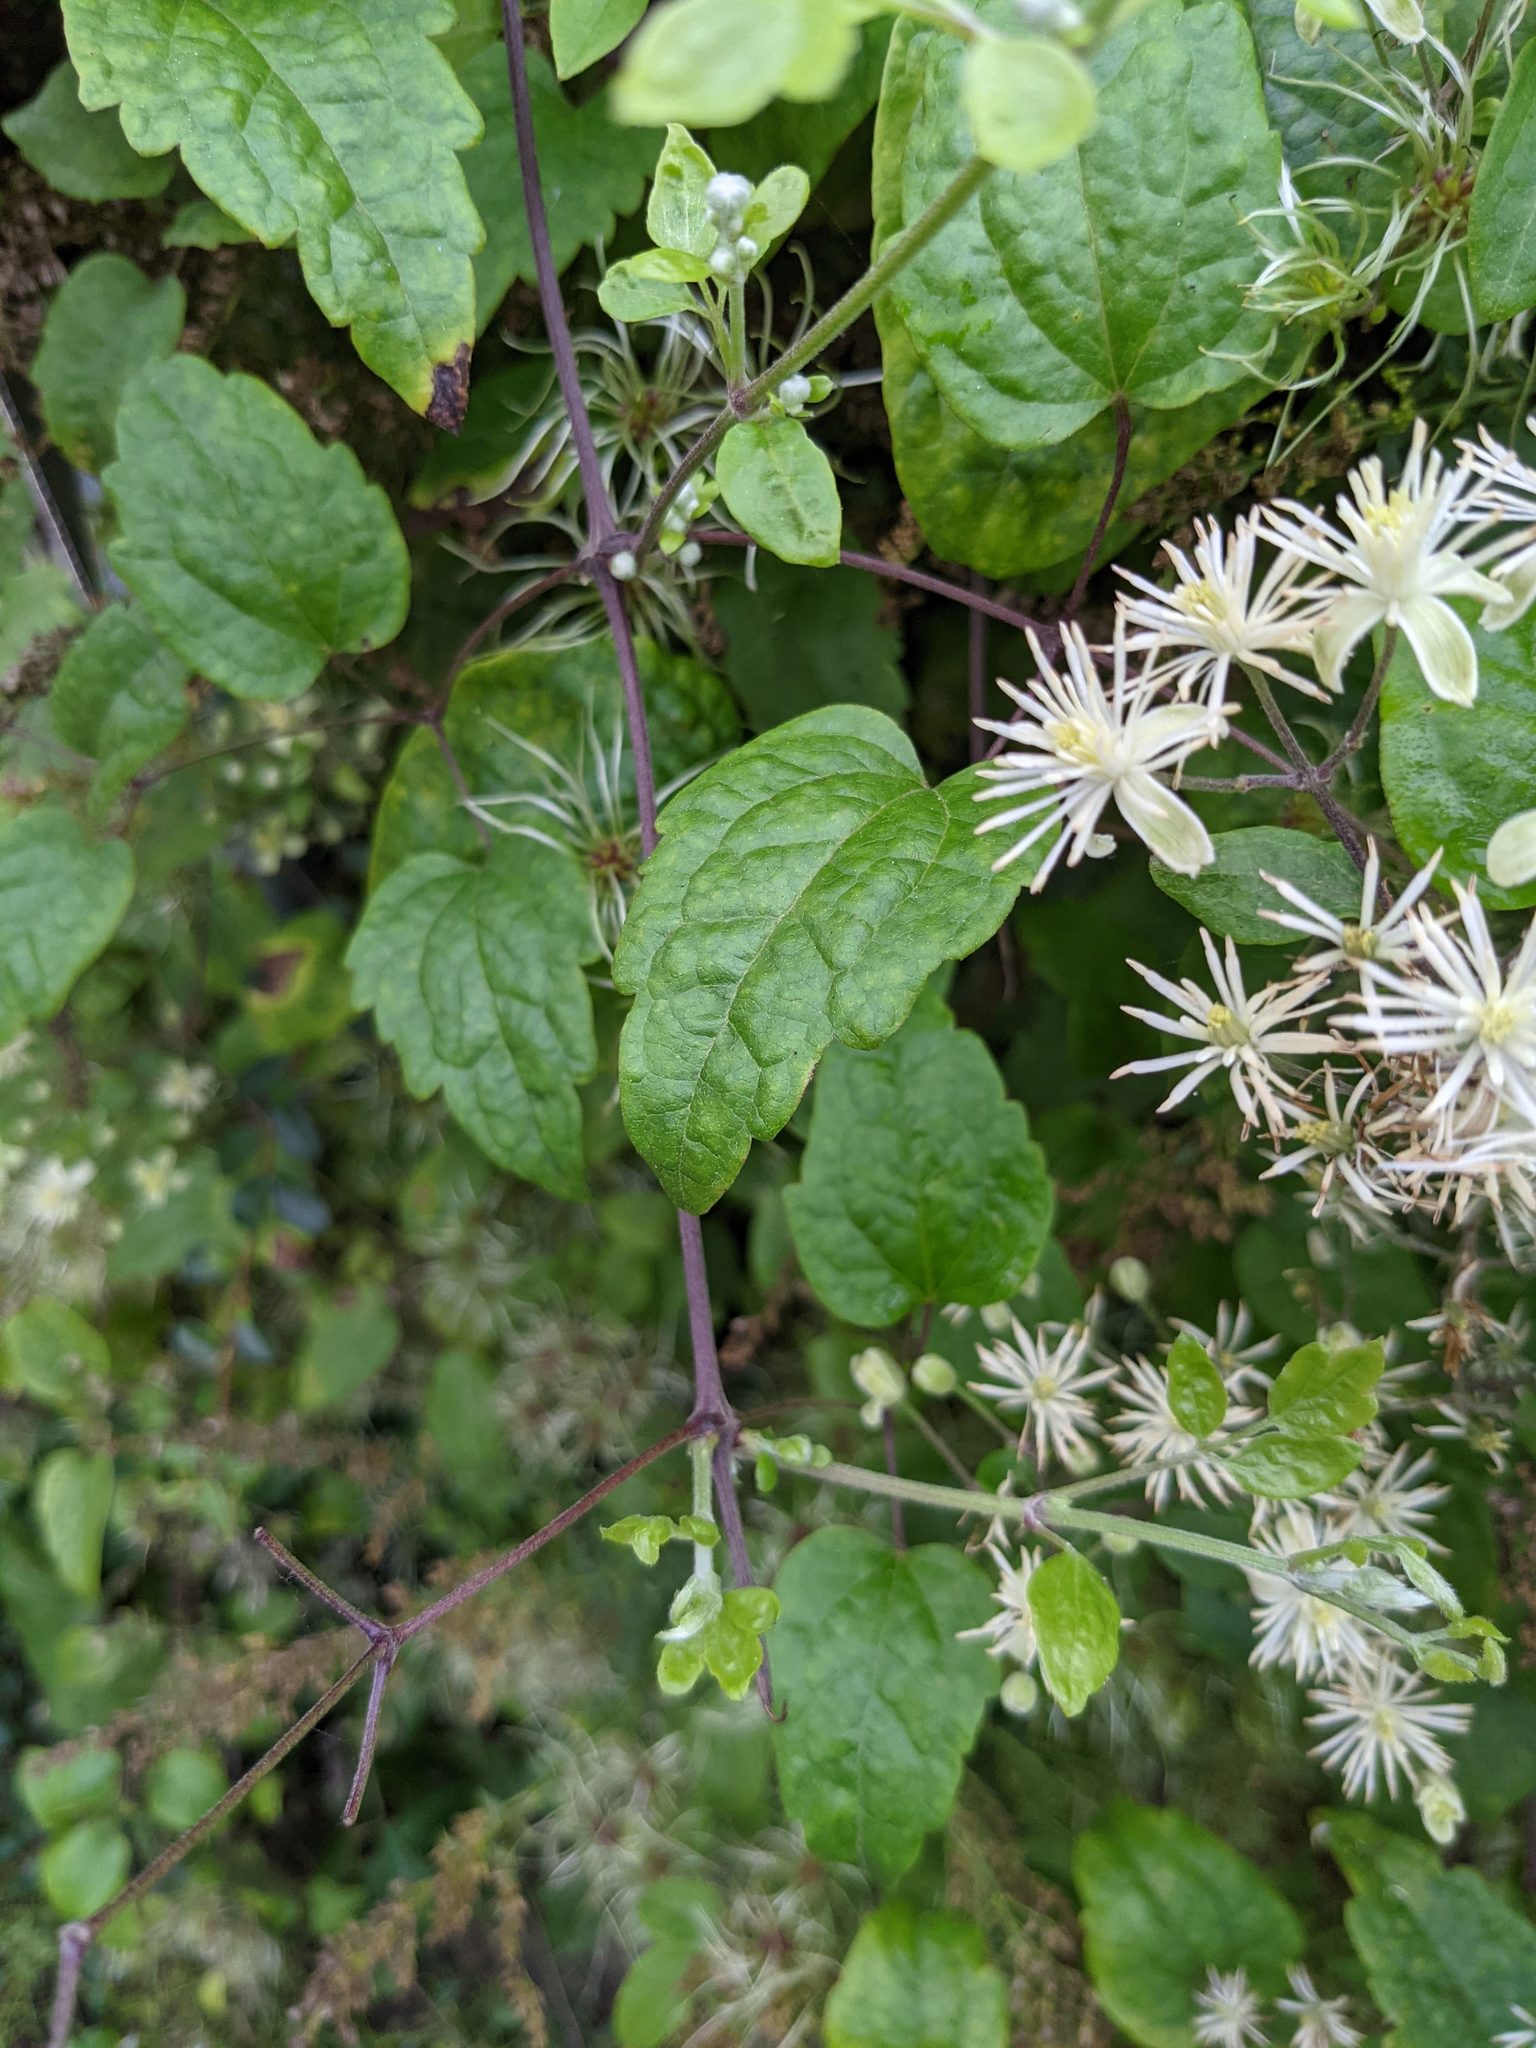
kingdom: Plantae
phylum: Tracheophyta
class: Magnoliopsida
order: Ranunculales
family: Ranunculaceae
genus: Clematis
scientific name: Clematis vitalba
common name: Evergreen clematis
